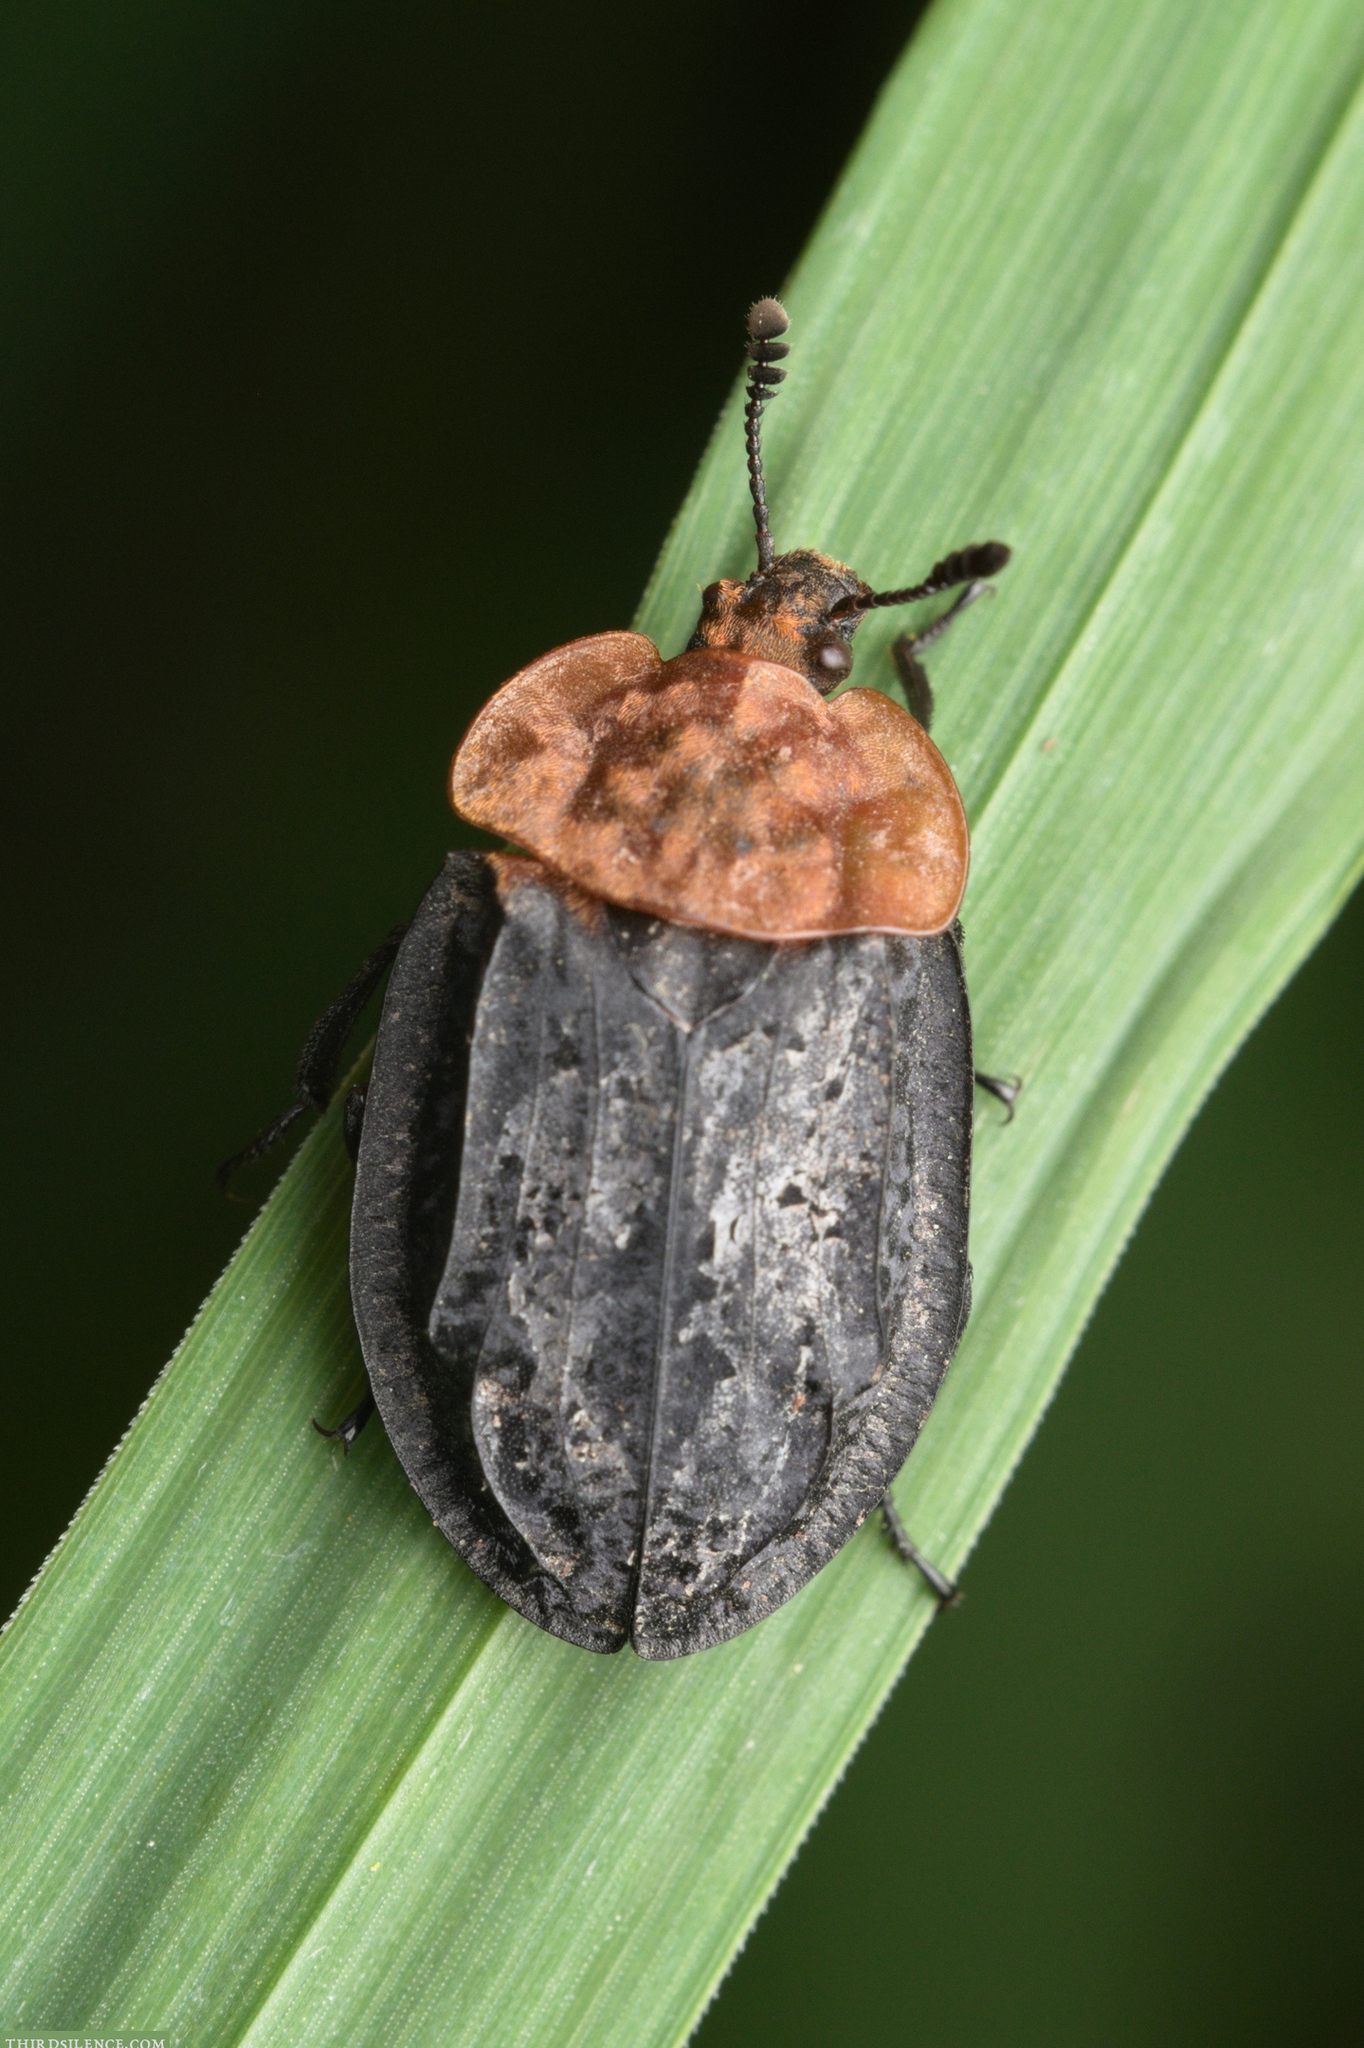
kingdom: Animalia
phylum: Arthropoda
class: Insecta
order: Coleoptera
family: Staphylinidae
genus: Oiceoptoma
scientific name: Oiceoptoma thoracicum
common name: Red-breasted carrion beetle
